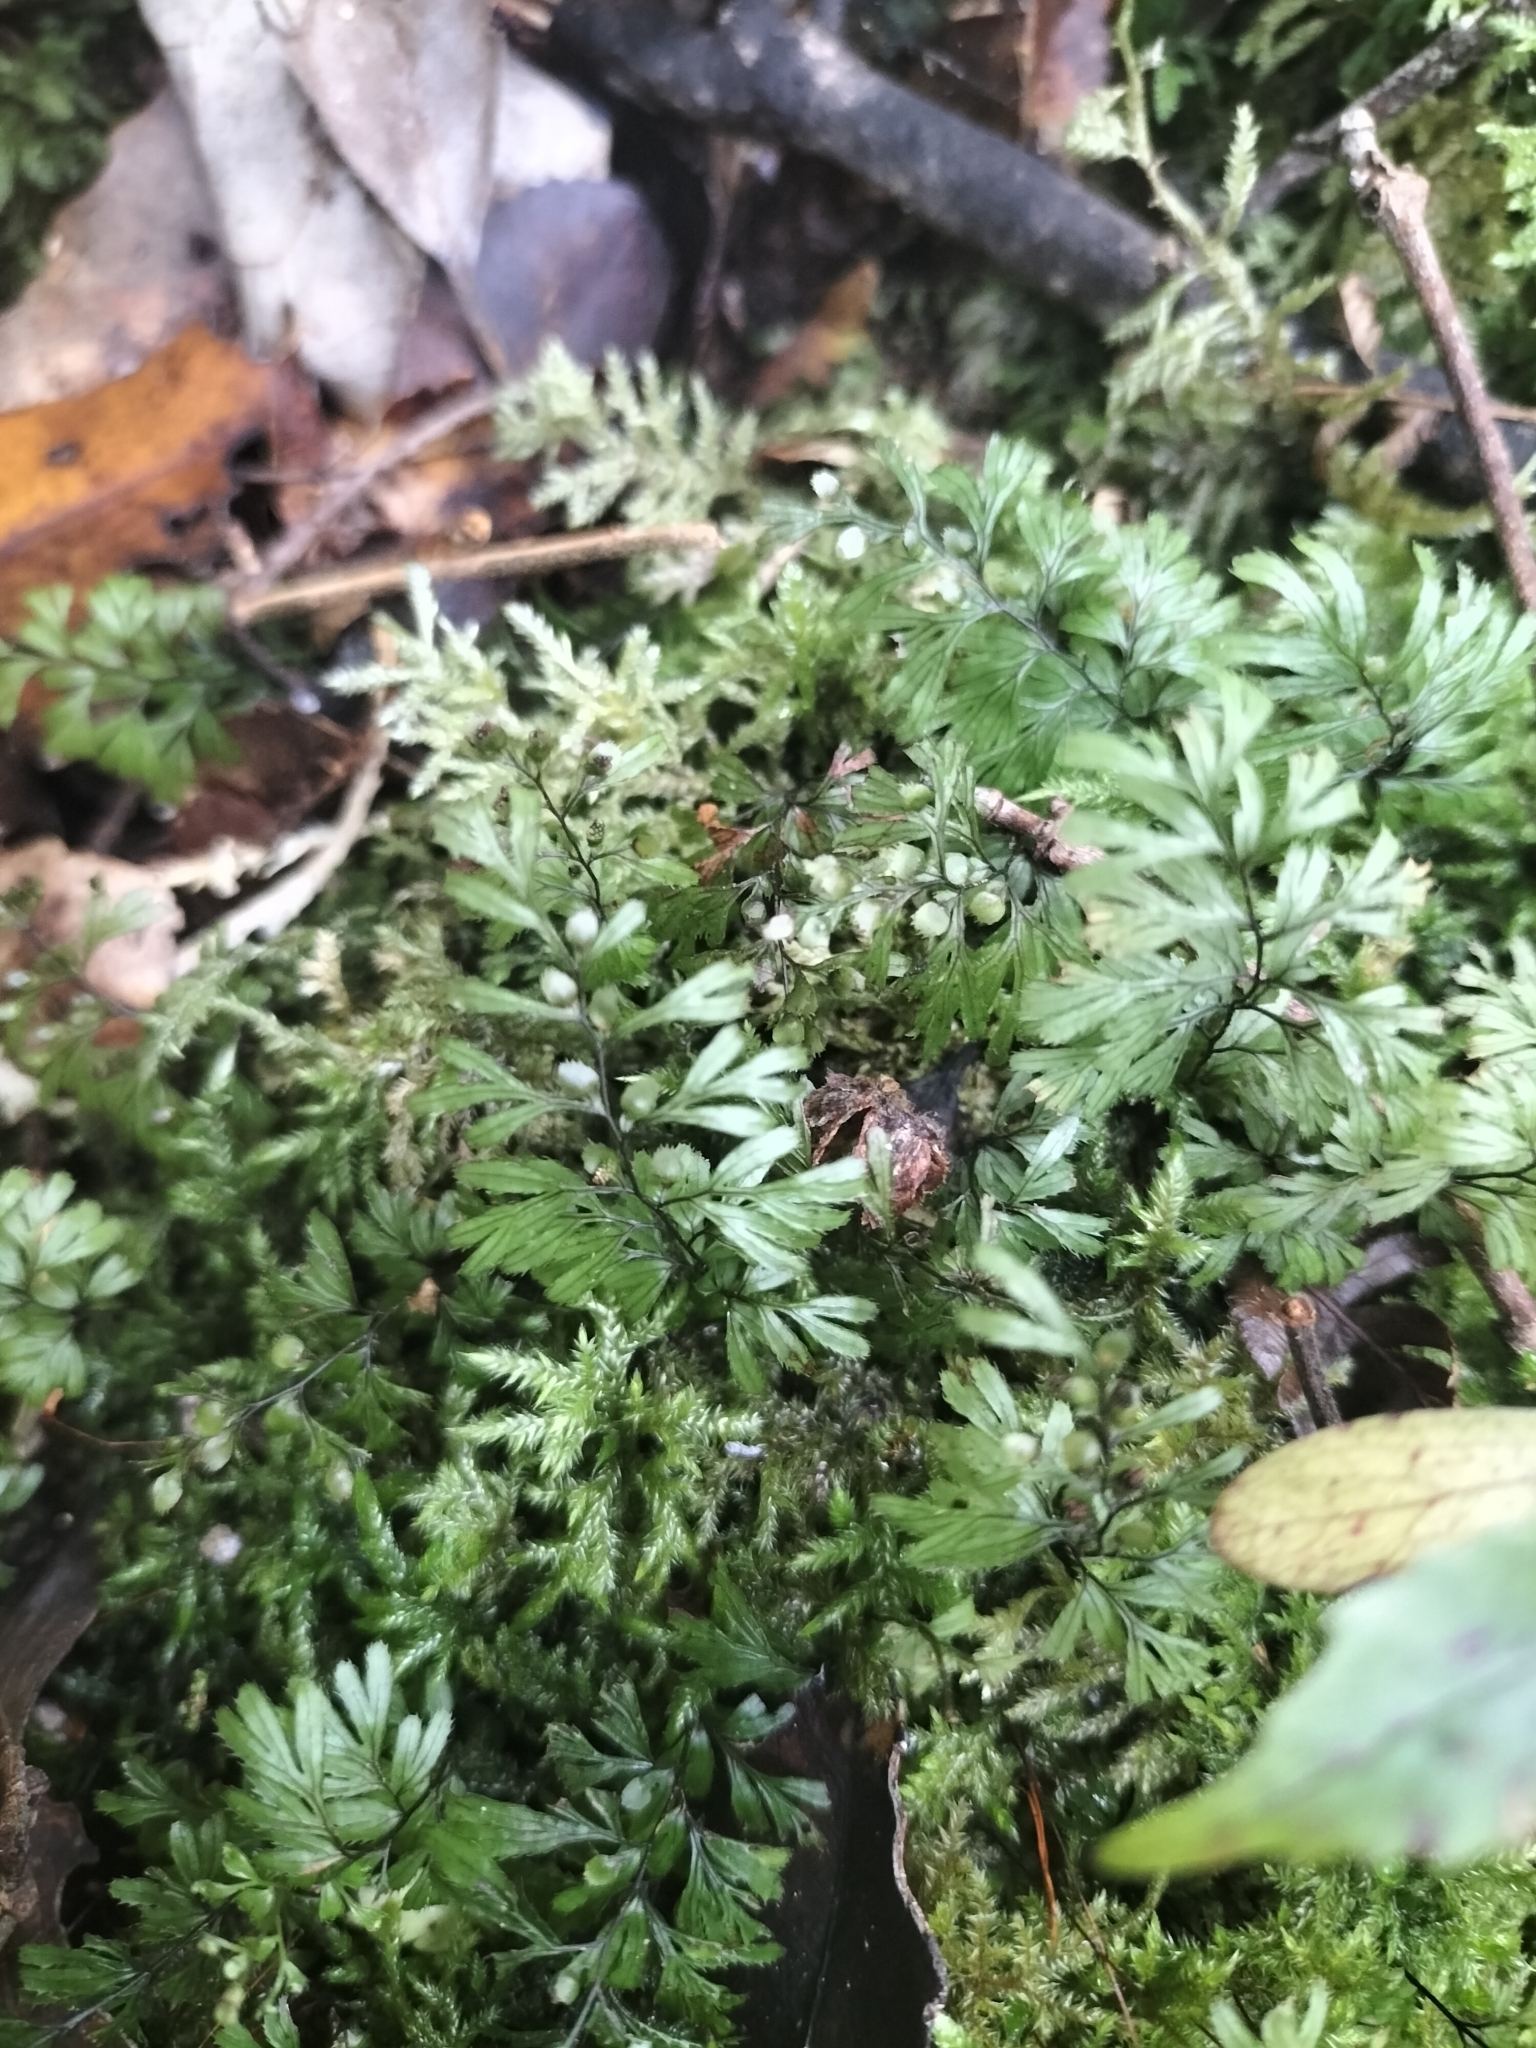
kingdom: Plantae
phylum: Tracheophyta
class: Polypodiopsida
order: Hymenophyllales
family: Hymenophyllaceae
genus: Hymenophyllum
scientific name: Hymenophyllum revolutum
